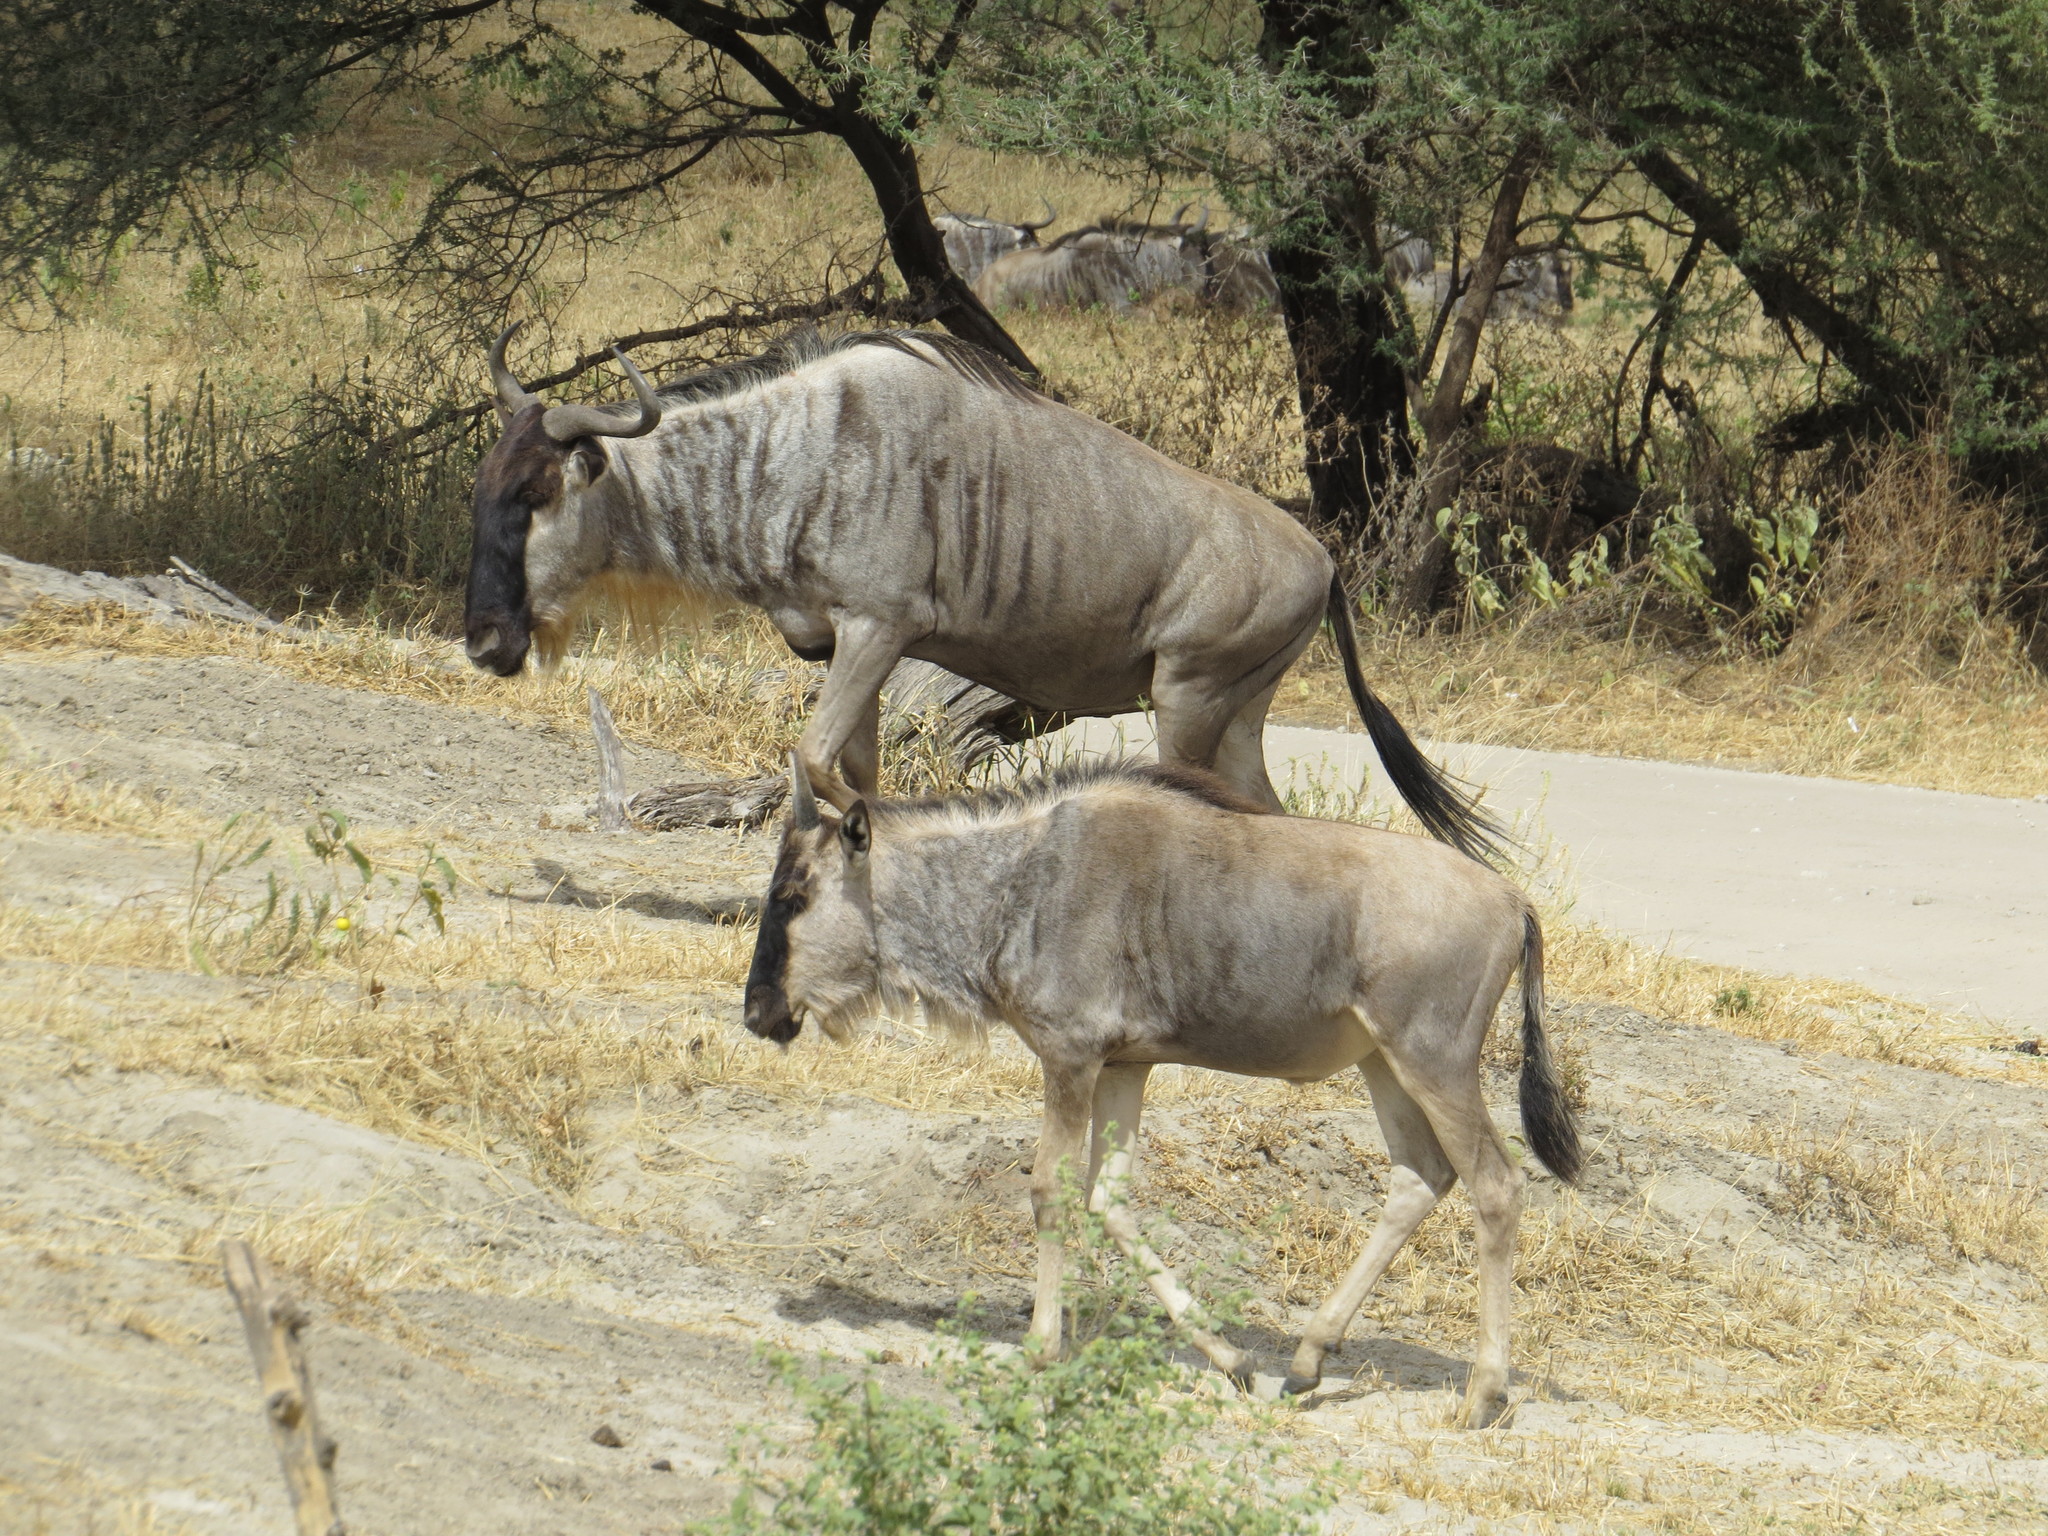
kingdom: Animalia
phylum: Chordata
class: Mammalia
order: Artiodactyla
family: Bovidae
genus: Connochaetes
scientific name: Connochaetes taurinus
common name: Blue wildebeest
